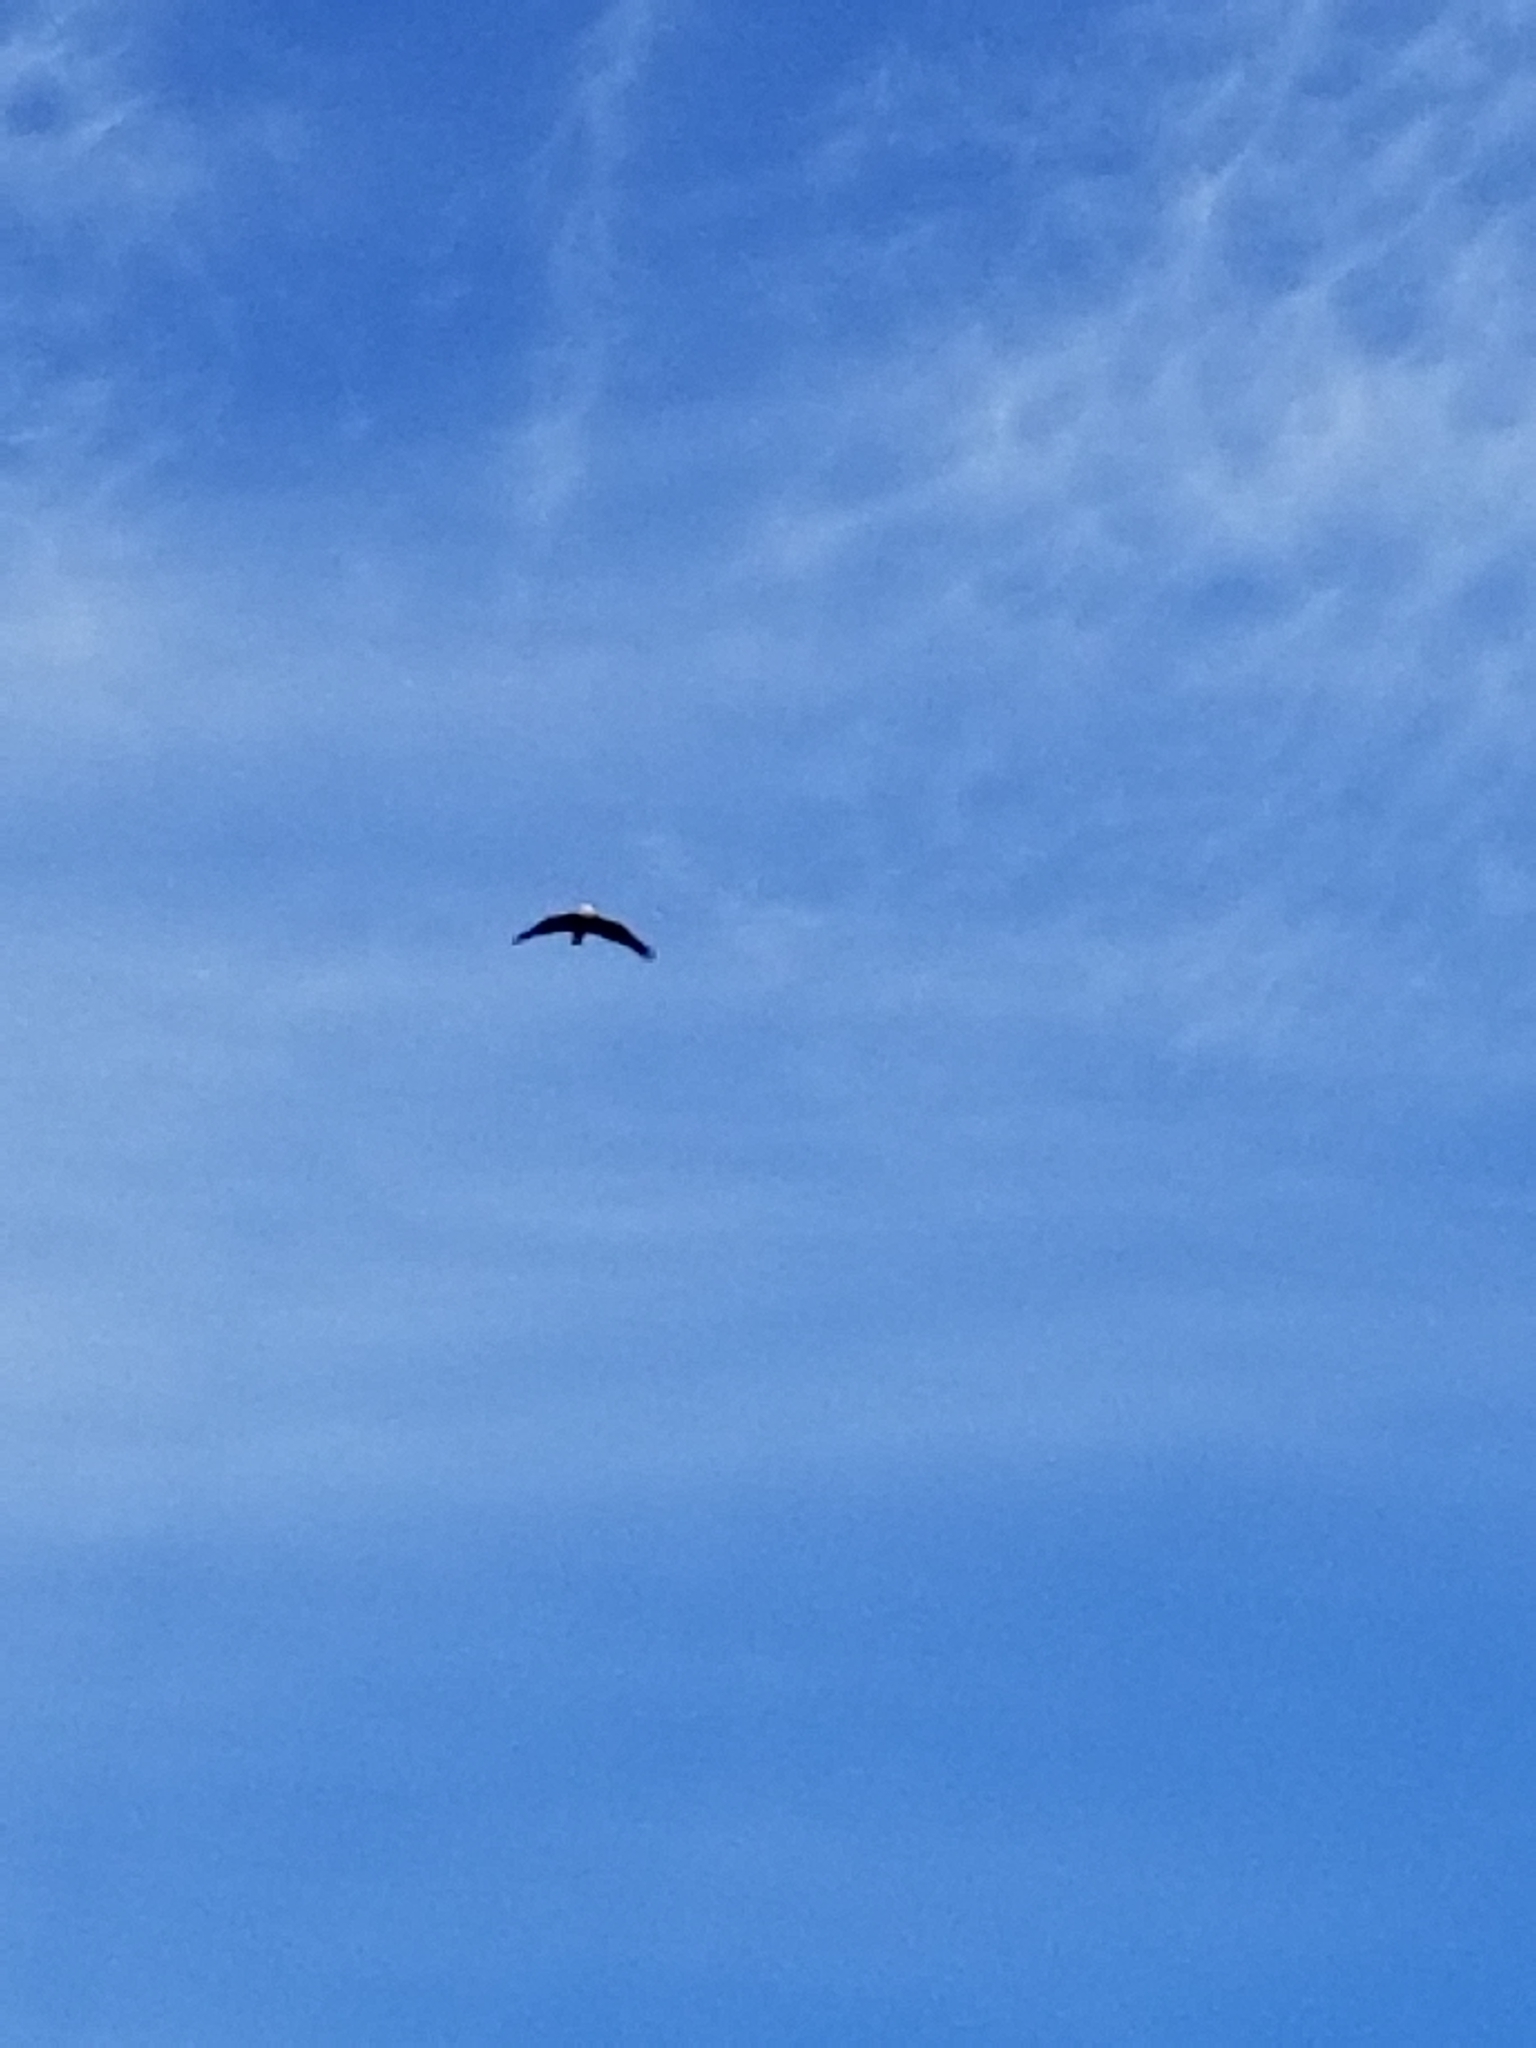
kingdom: Animalia
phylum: Chordata
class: Aves
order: Accipitriformes
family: Accipitridae
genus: Haliaeetus
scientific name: Haliaeetus leucocephalus
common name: Bald eagle
